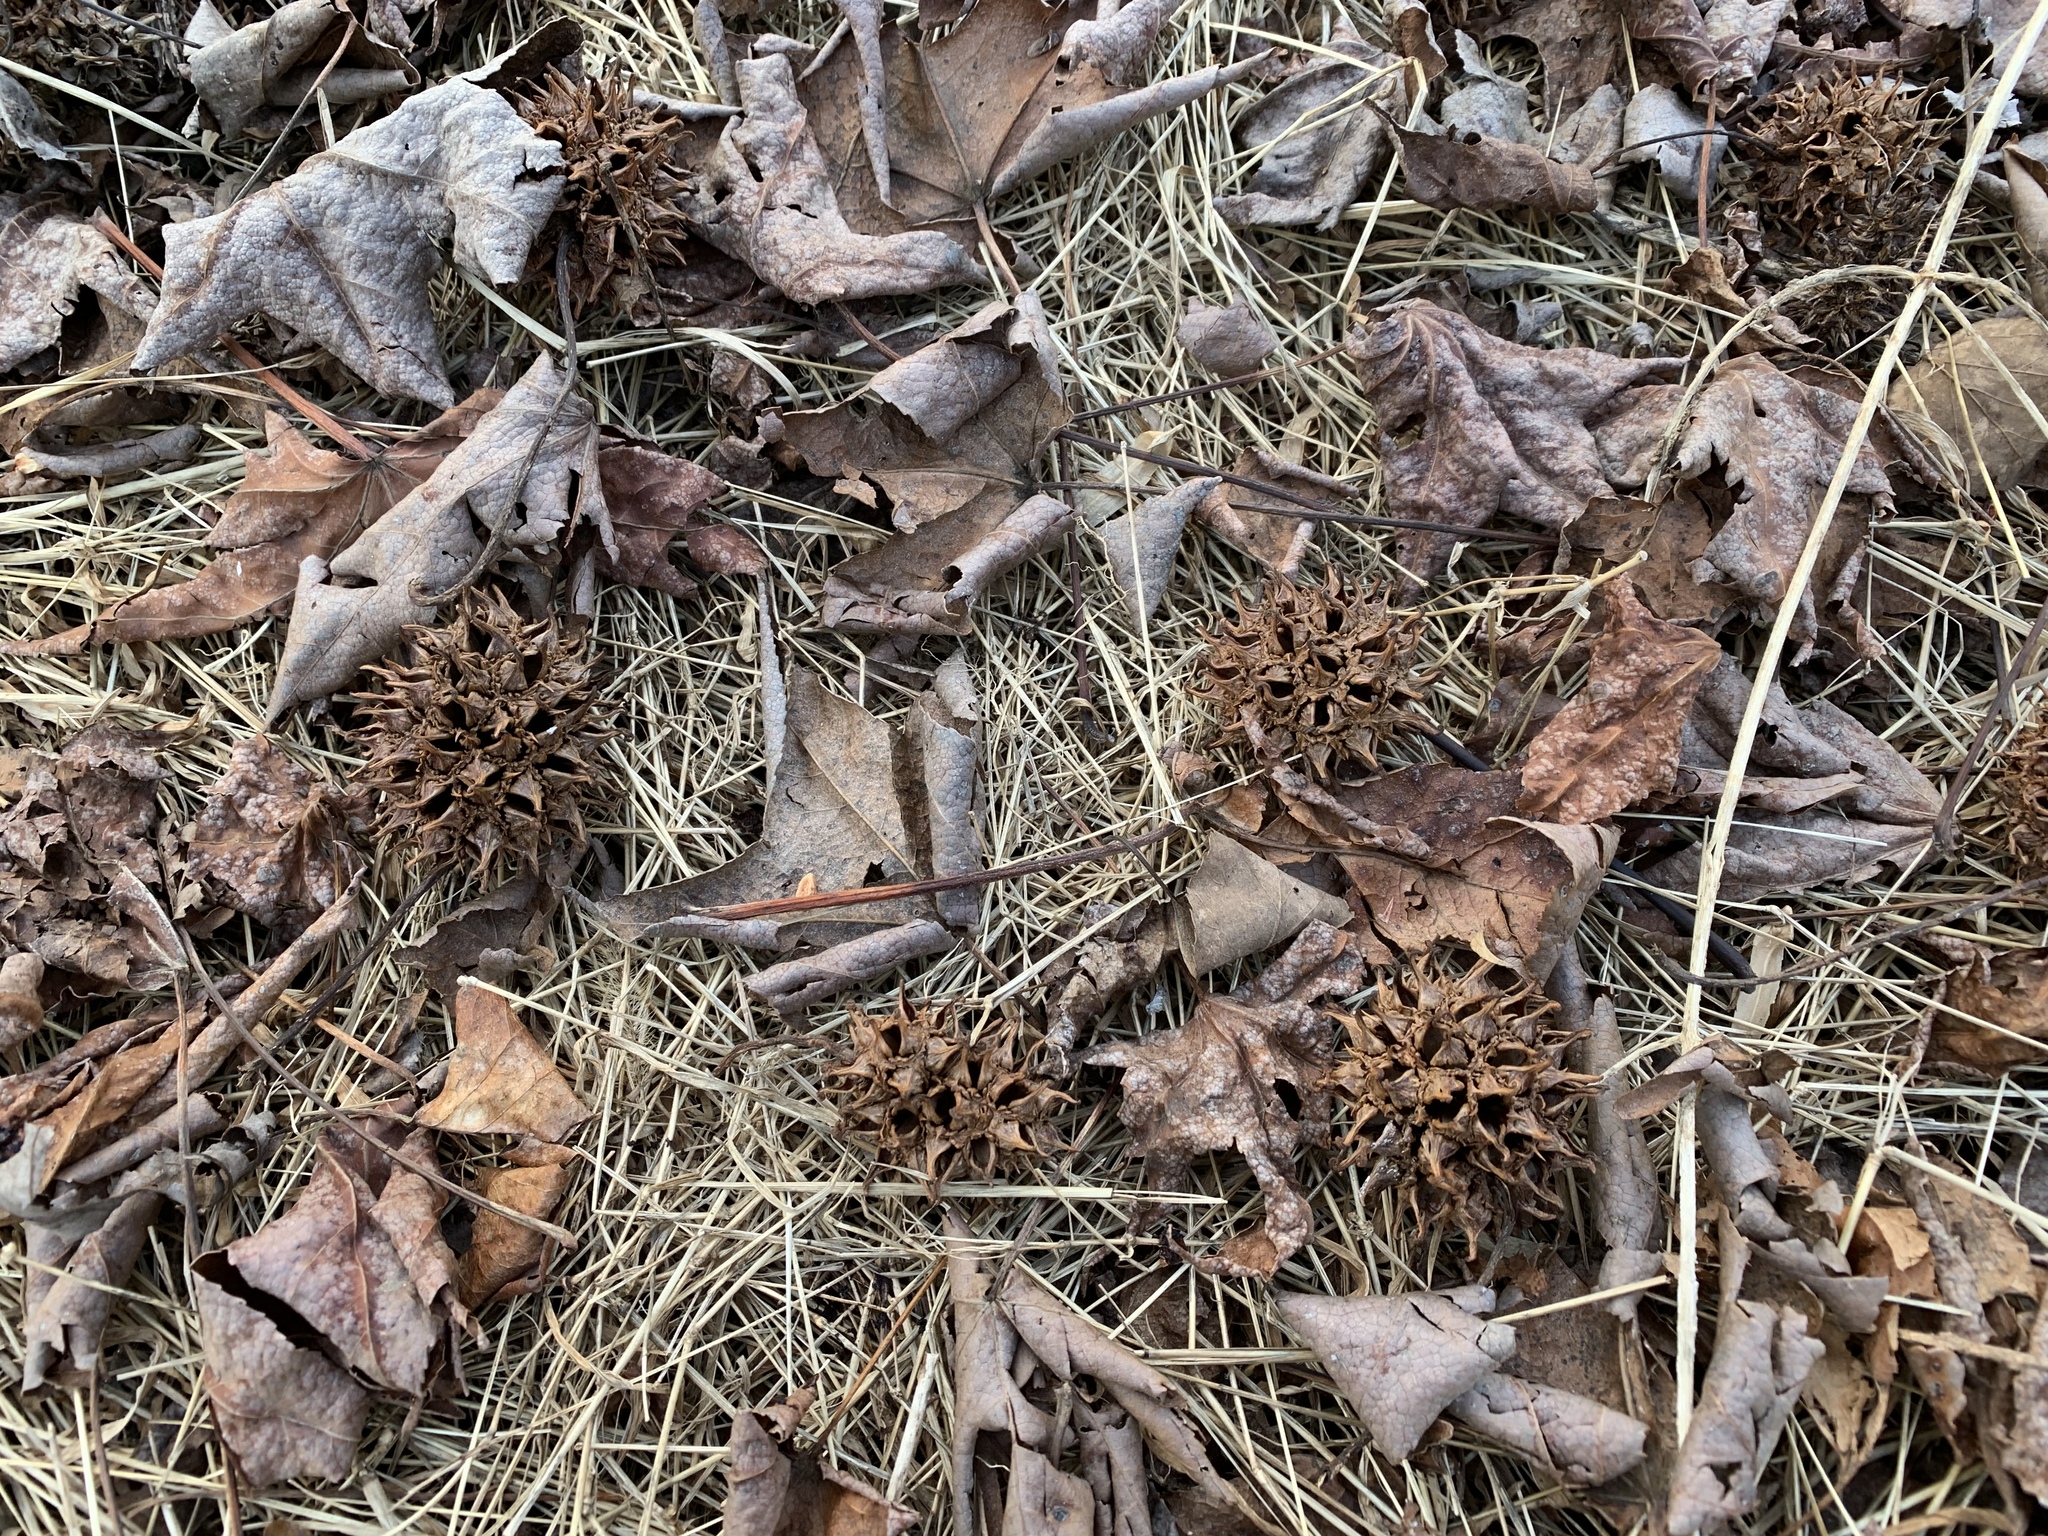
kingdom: Plantae
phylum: Tracheophyta
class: Magnoliopsida
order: Saxifragales
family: Altingiaceae
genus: Liquidambar
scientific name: Liquidambar styraciflua
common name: Sweet gum
